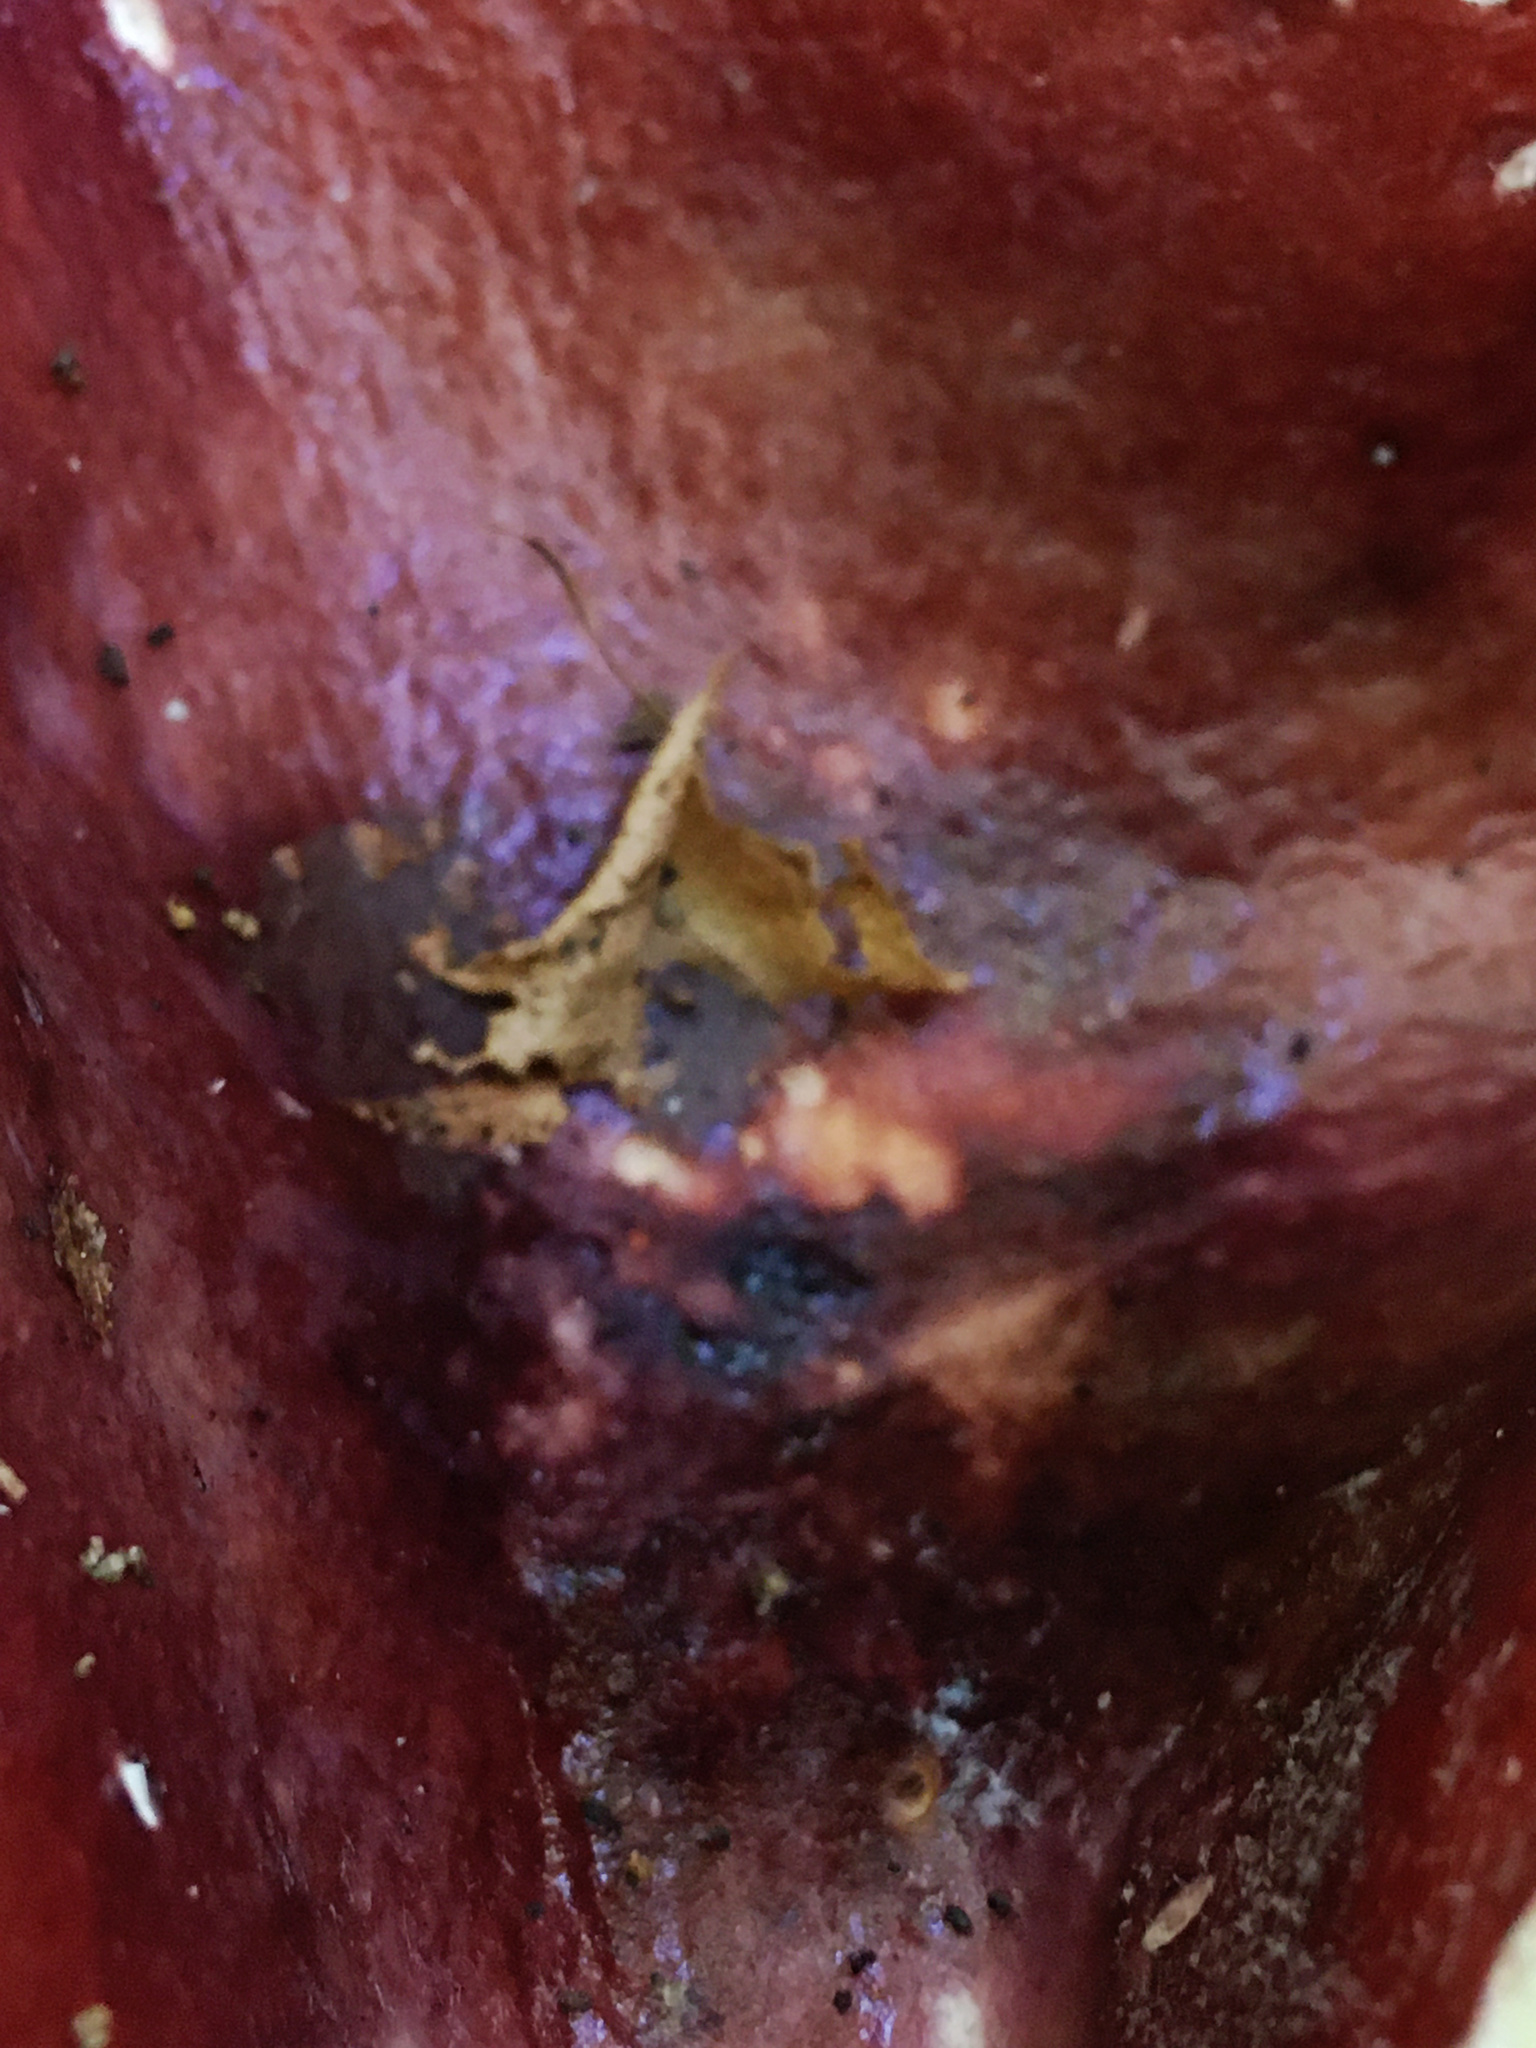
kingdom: Fungi
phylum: Basidiomycota
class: Agaricomycetes
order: Russulales
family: Russulaceae
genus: Russula
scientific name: Russula vinacea
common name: Blackish-red russula
